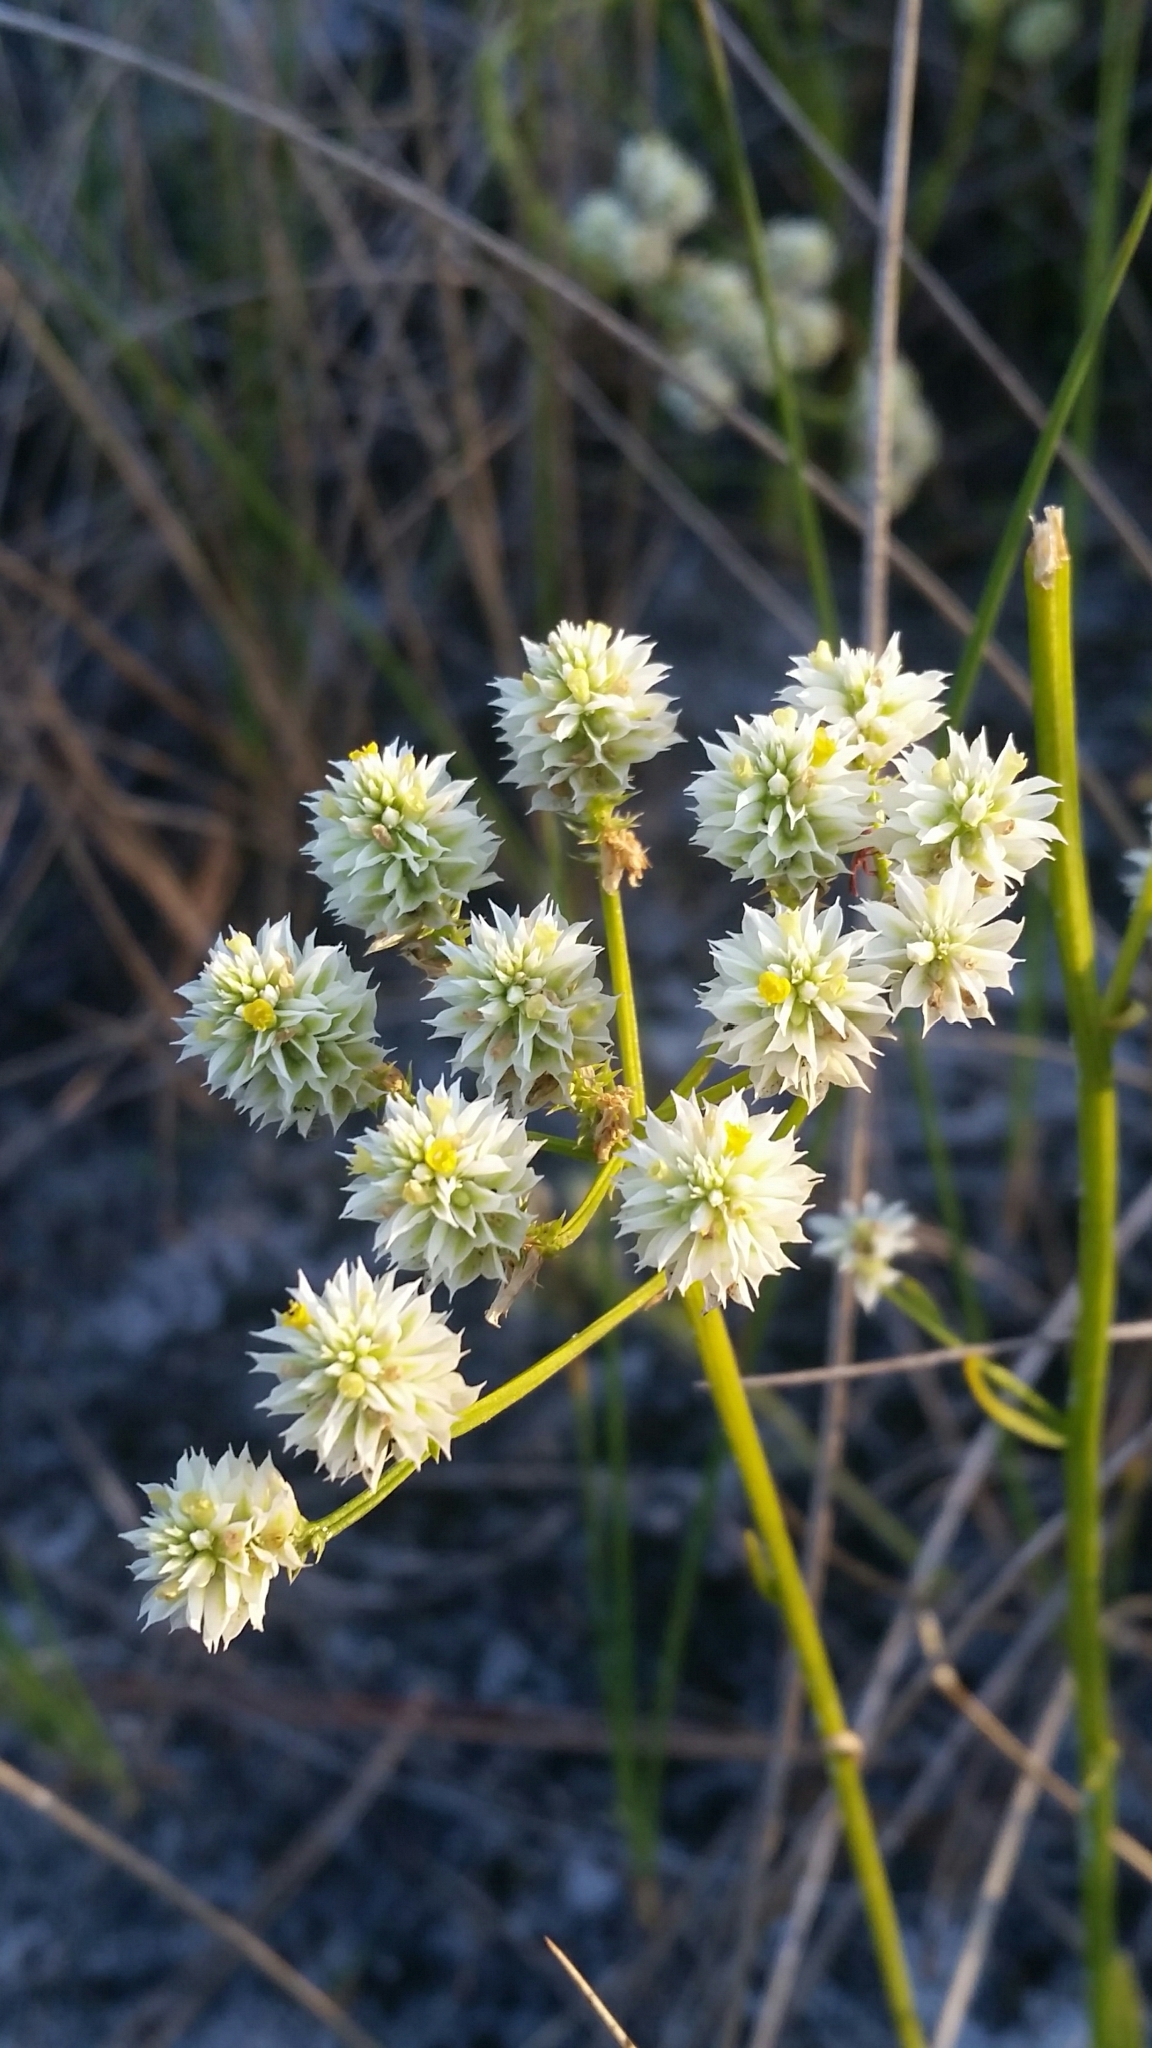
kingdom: Plantae
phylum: Tracheophyta
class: Magnoliopsida
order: Fabales
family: Polygalaceae
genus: Polygala
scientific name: Polygala baldwinii
